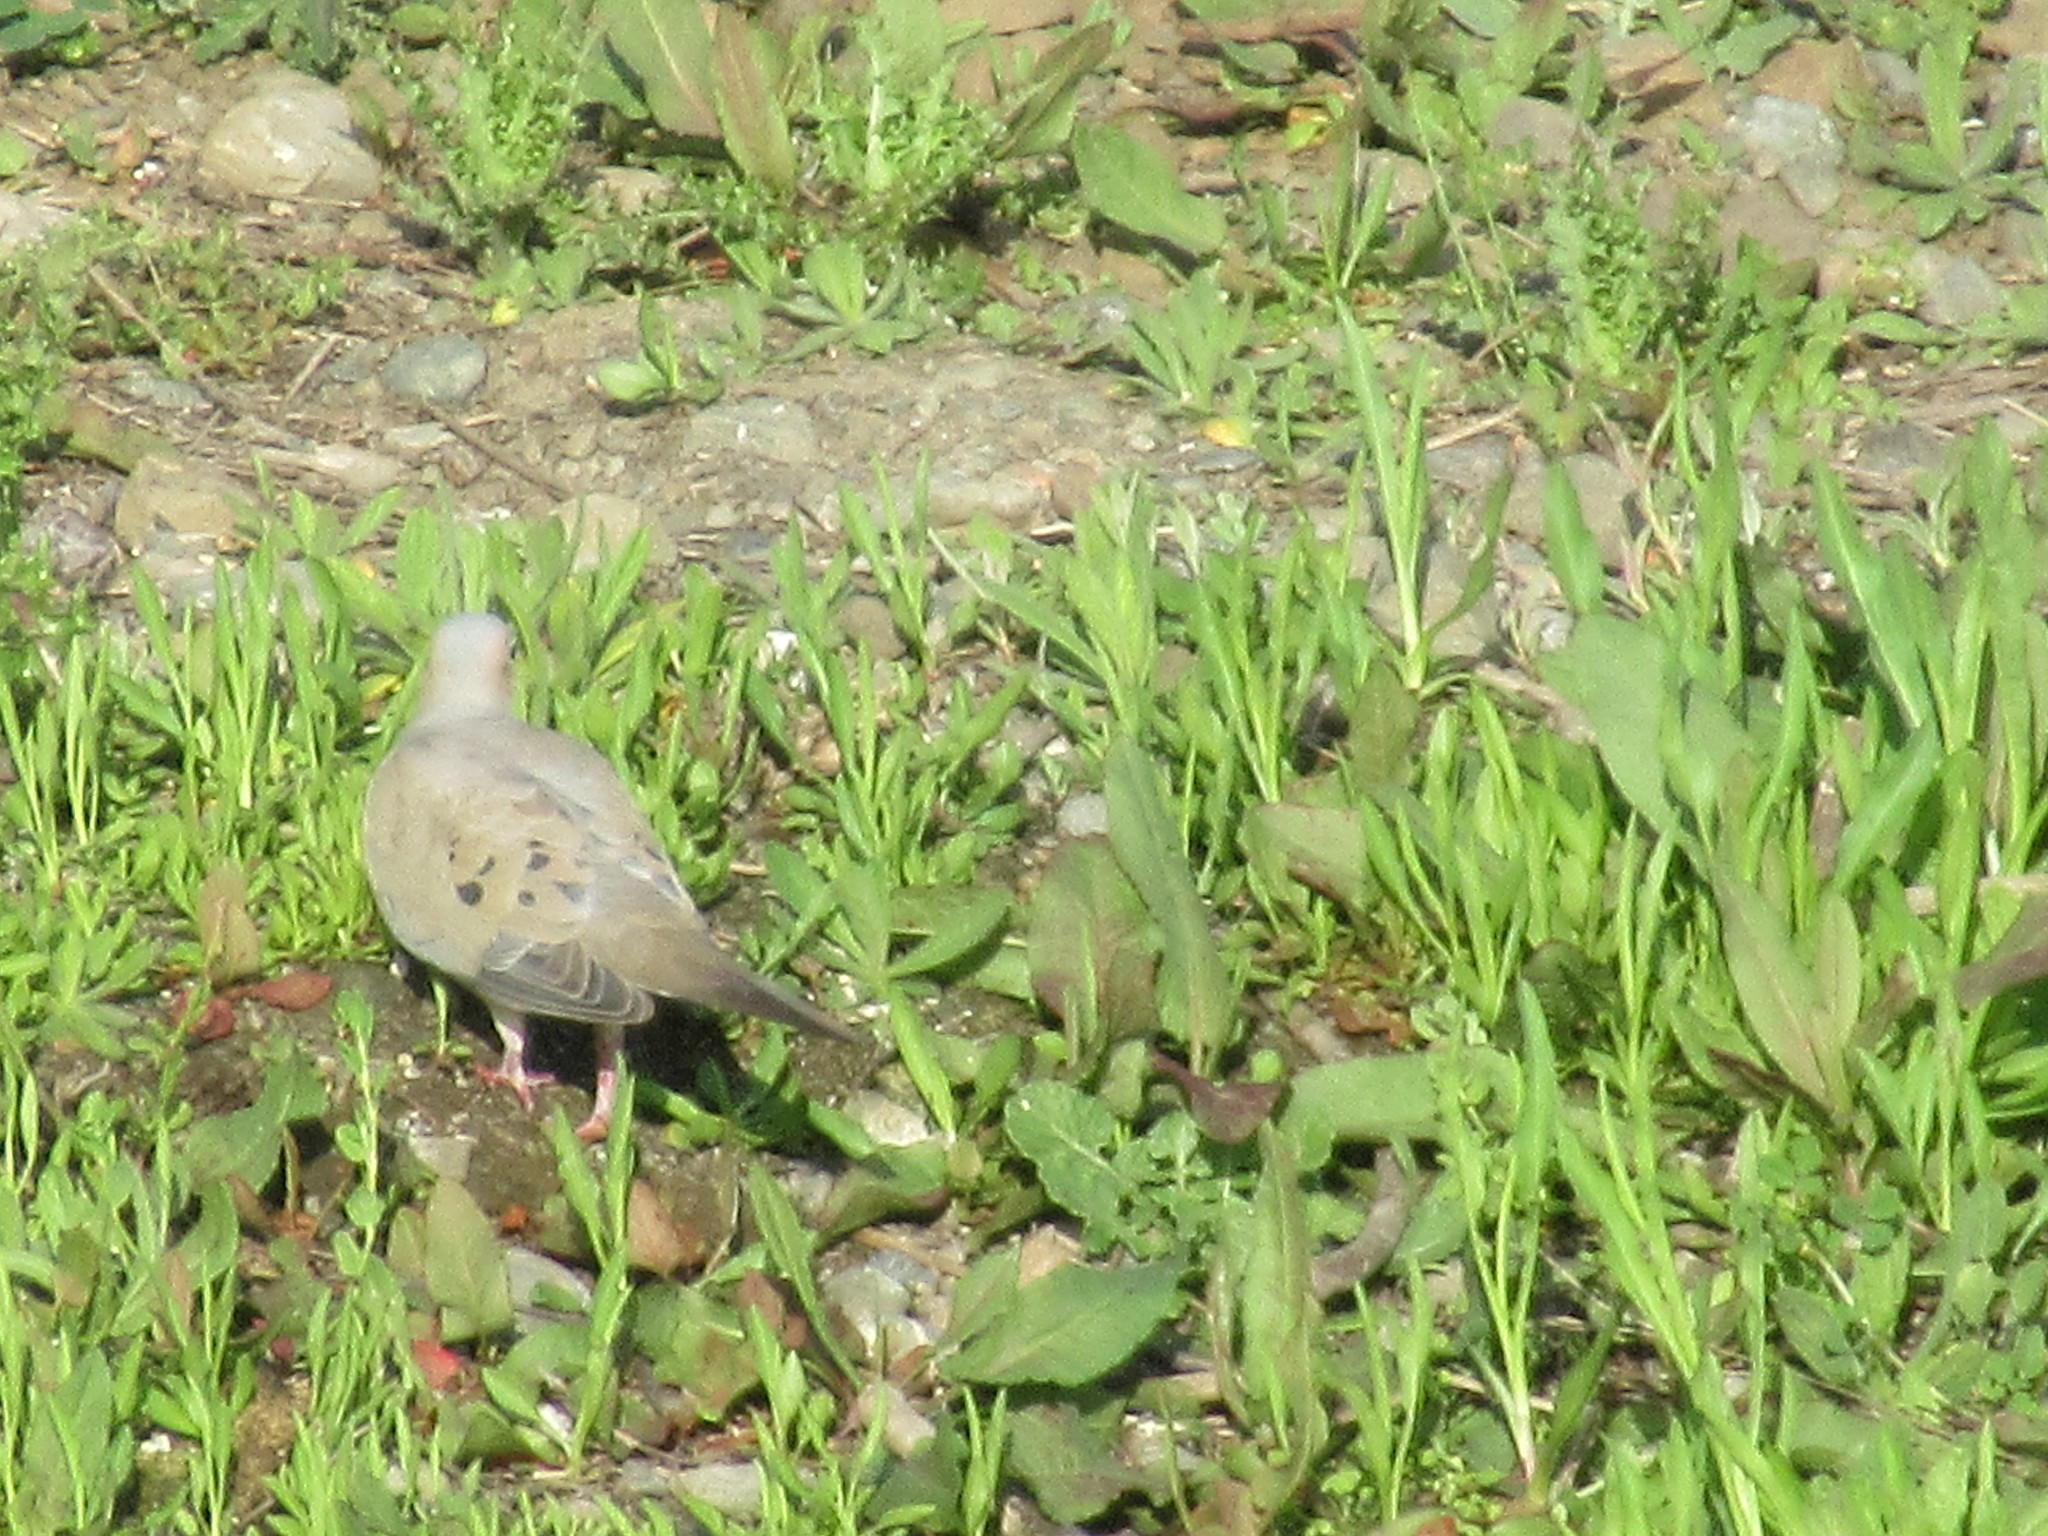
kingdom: Animalia
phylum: Chordata
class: Aves
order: Columbiformes
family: Columbidae
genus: Zenaida
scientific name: Zenaida macroura
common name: Mourning dove
